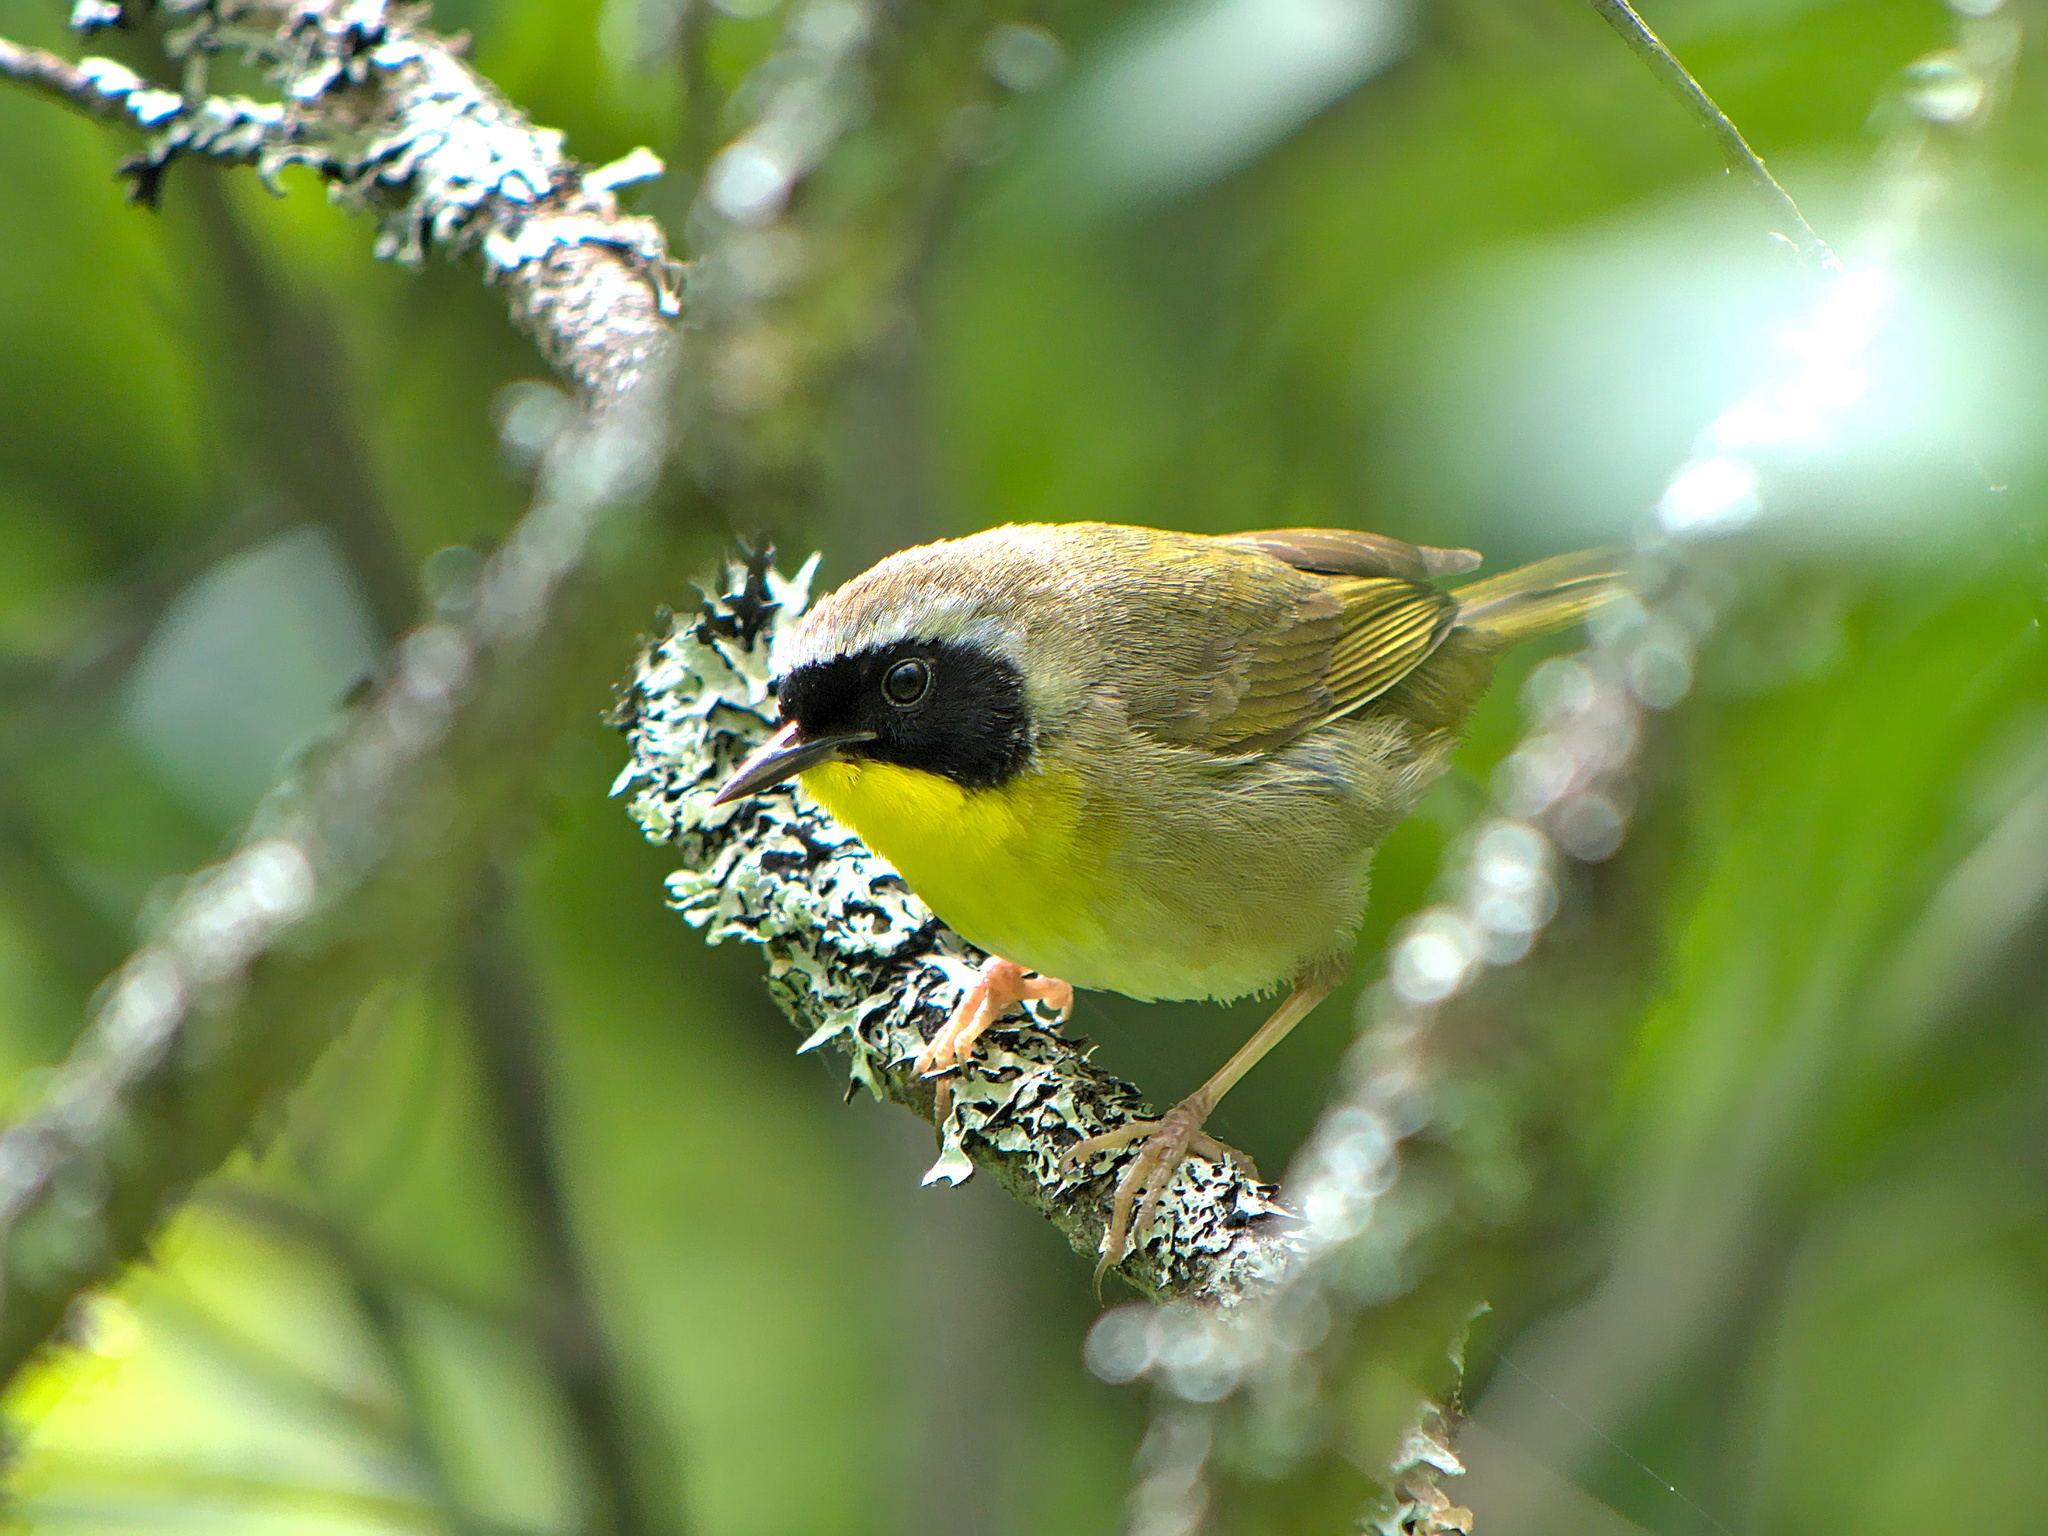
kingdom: Animalia
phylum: Chordata
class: Aves
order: Passeriformes
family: Parulidae
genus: Geothlypis
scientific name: Geothlypis trichas
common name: Common yellowthroat
